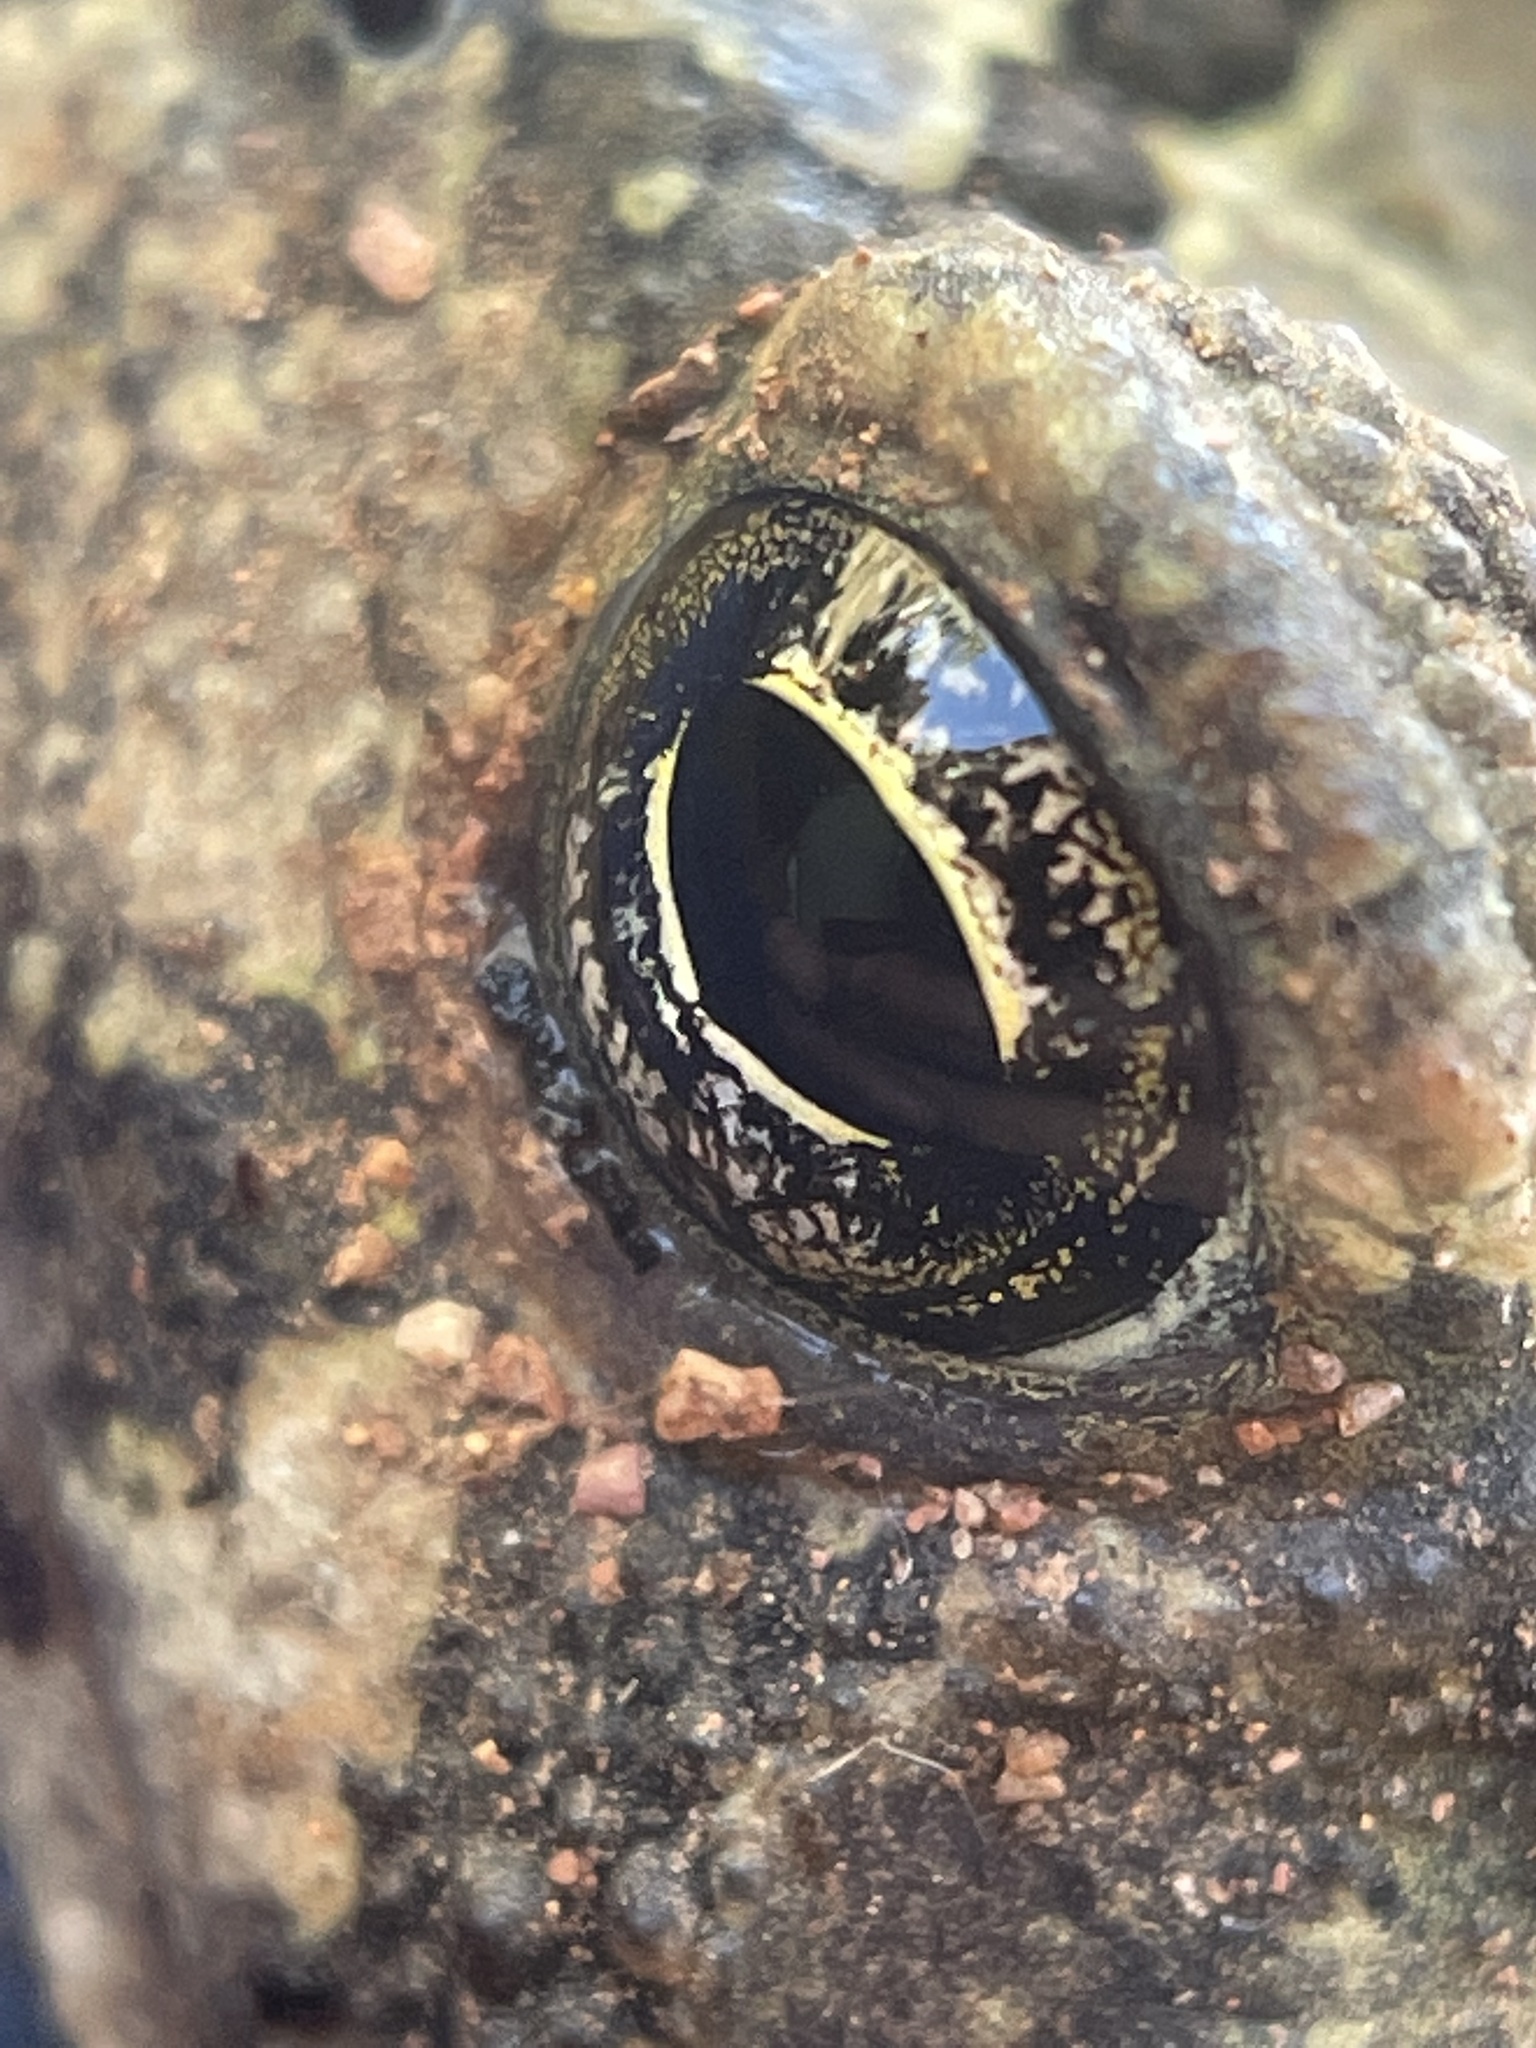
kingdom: Animalia
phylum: Chordata
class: Amphibia
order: Anura
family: Bufonidae
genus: Anaxyrus
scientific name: Anaxyrus fowleri
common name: Fowler's toad
